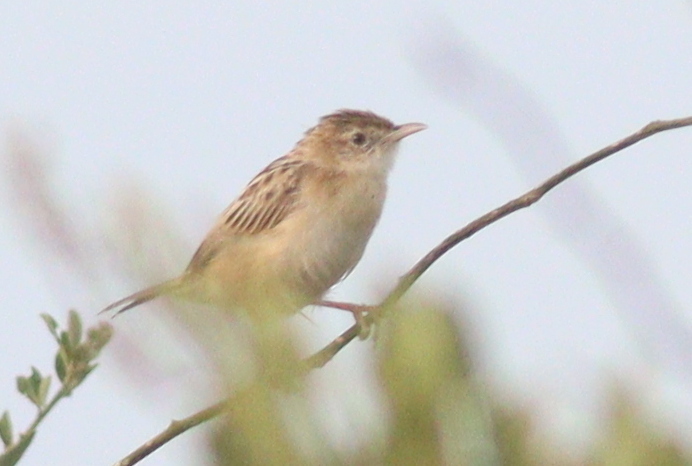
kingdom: Animalia
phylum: Chordata
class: Aves
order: Passeriformes
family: Cisticolidae
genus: Cisticola
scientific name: Cisticola aridulus
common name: Desert cisticola
